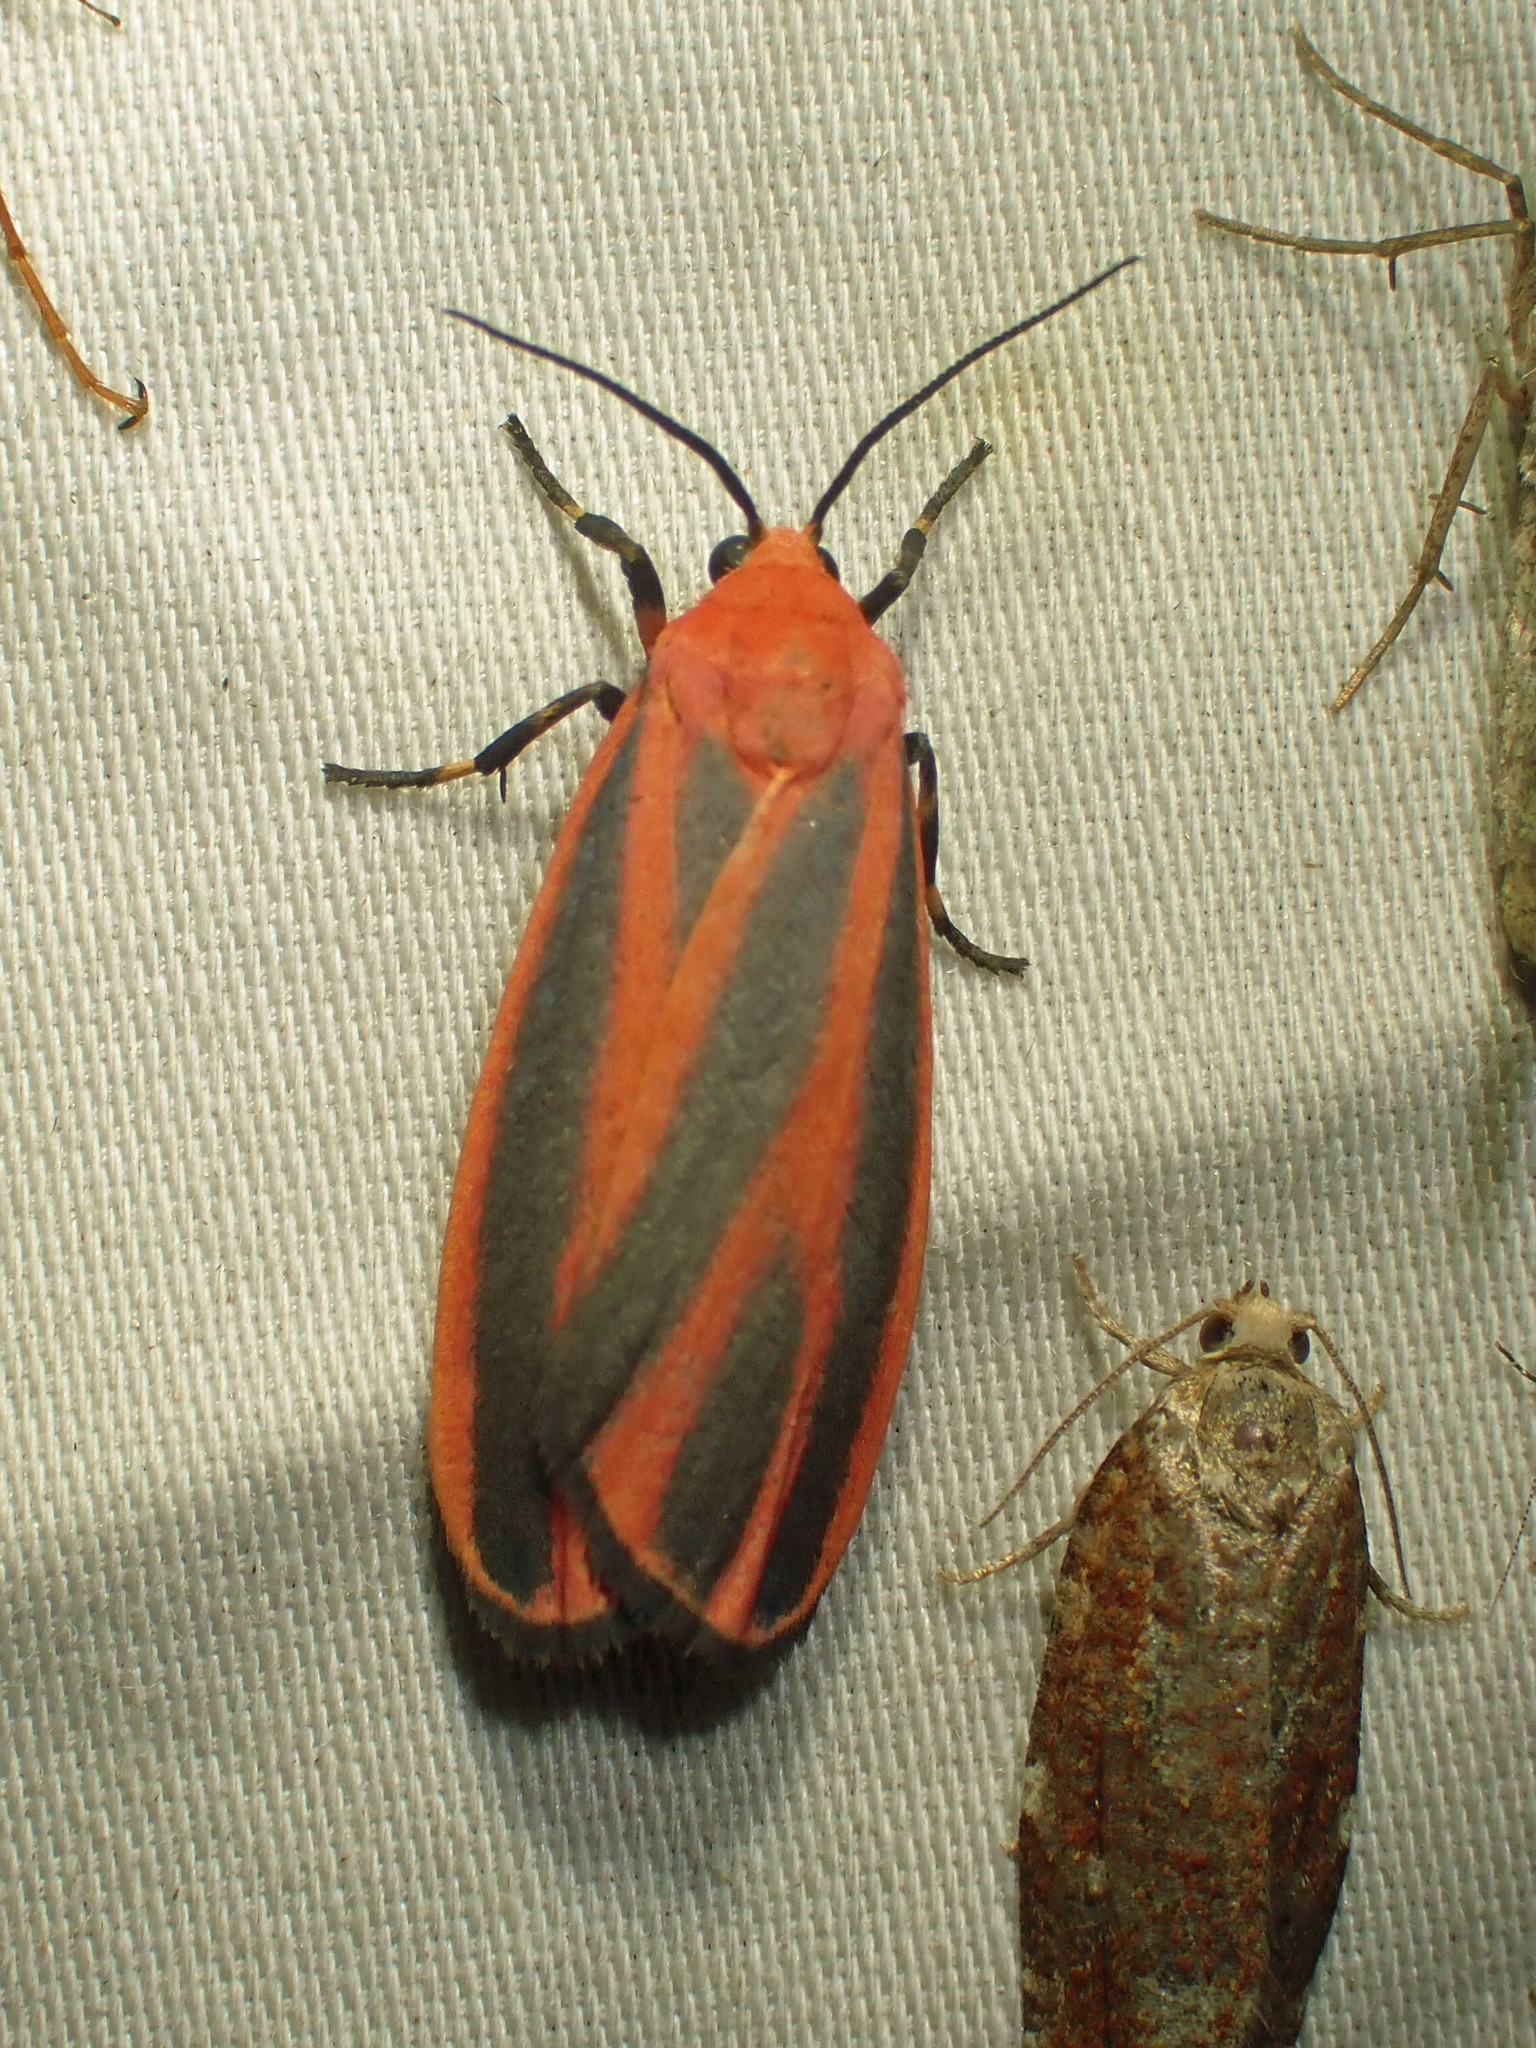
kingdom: Animalia
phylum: Arthropoda
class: Insecta
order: Lepidoptera
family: Erebidae
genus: Hypoprepia
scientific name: Hypoprepia miniata
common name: Scarlet-winged lichen moth
